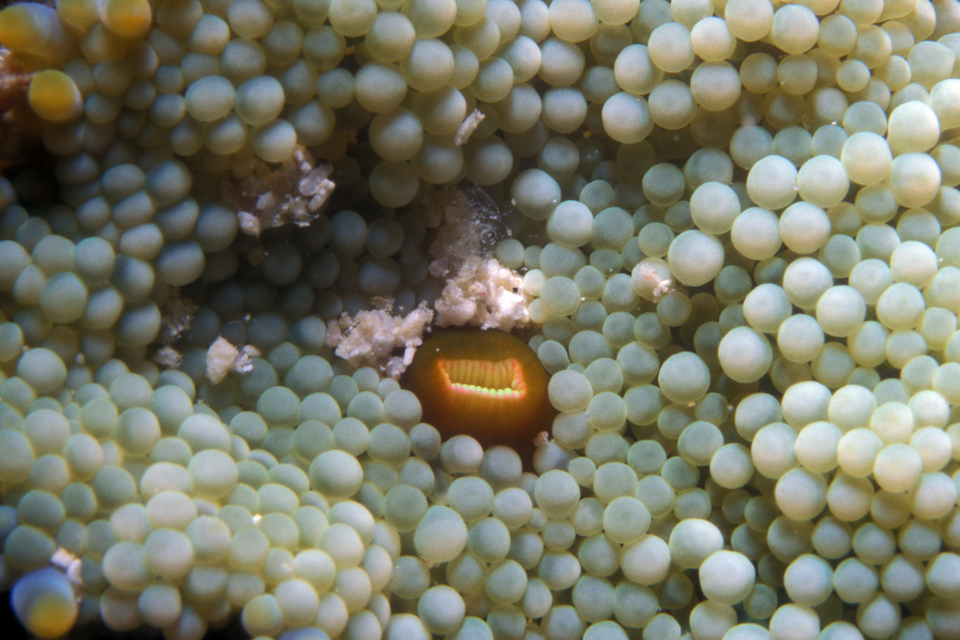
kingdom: Animalia
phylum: Cnidaria
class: Anthozoa
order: Corallimorpharia
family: Ricordeidae
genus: Ricordea
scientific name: Ricordea florida
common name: False coral
